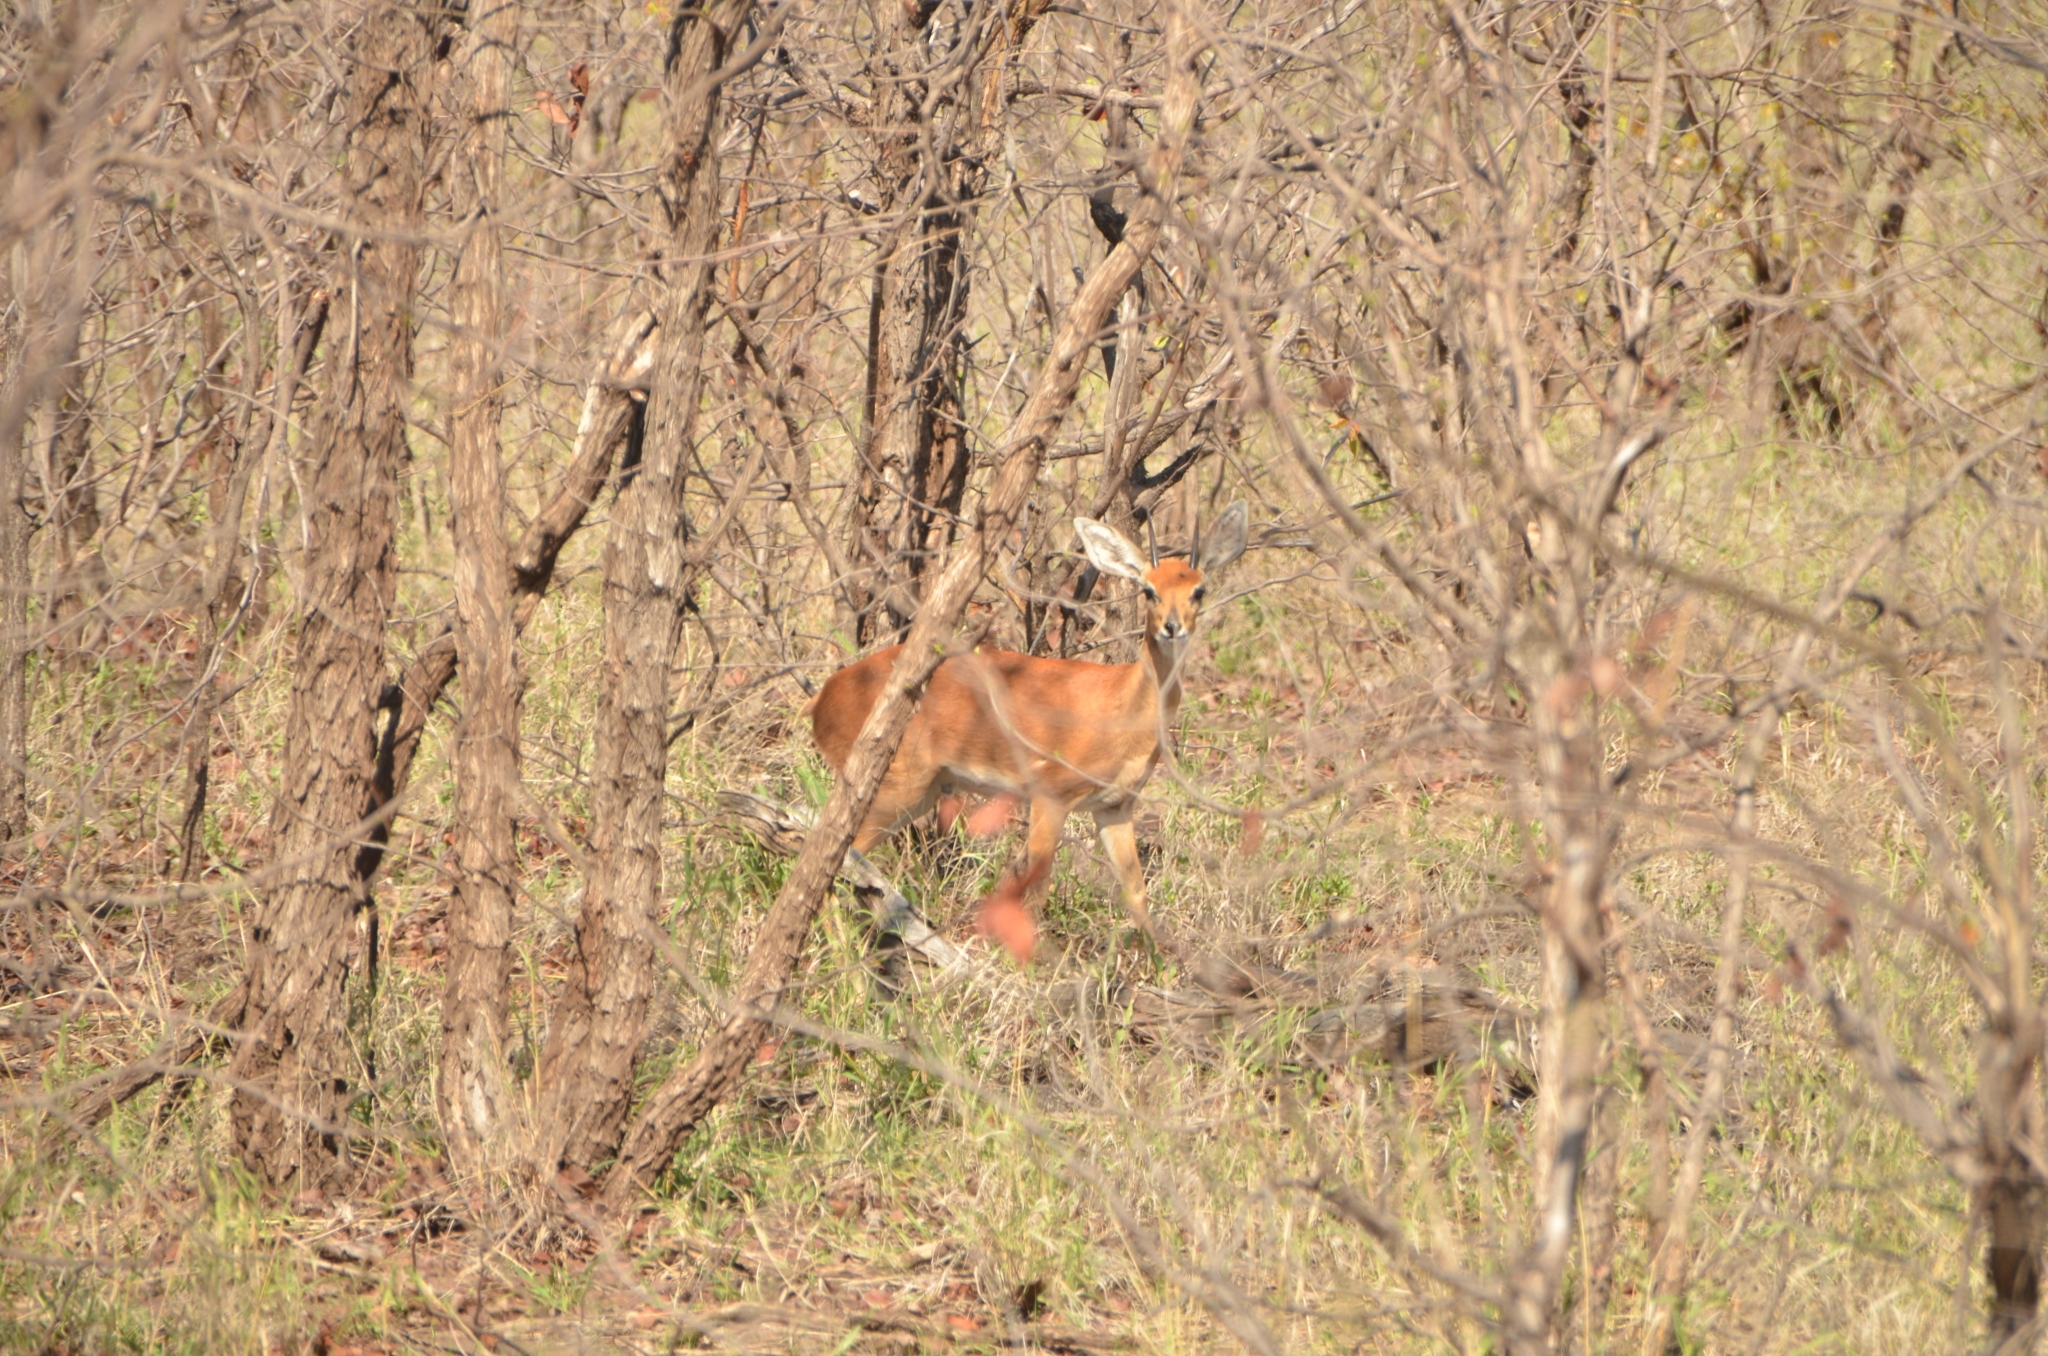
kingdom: Animalia
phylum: Chordata
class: Mammalia
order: Artiodactyla
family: Bovidae
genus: Raphicerus
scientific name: Raphicerus campestris
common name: Steenbok
